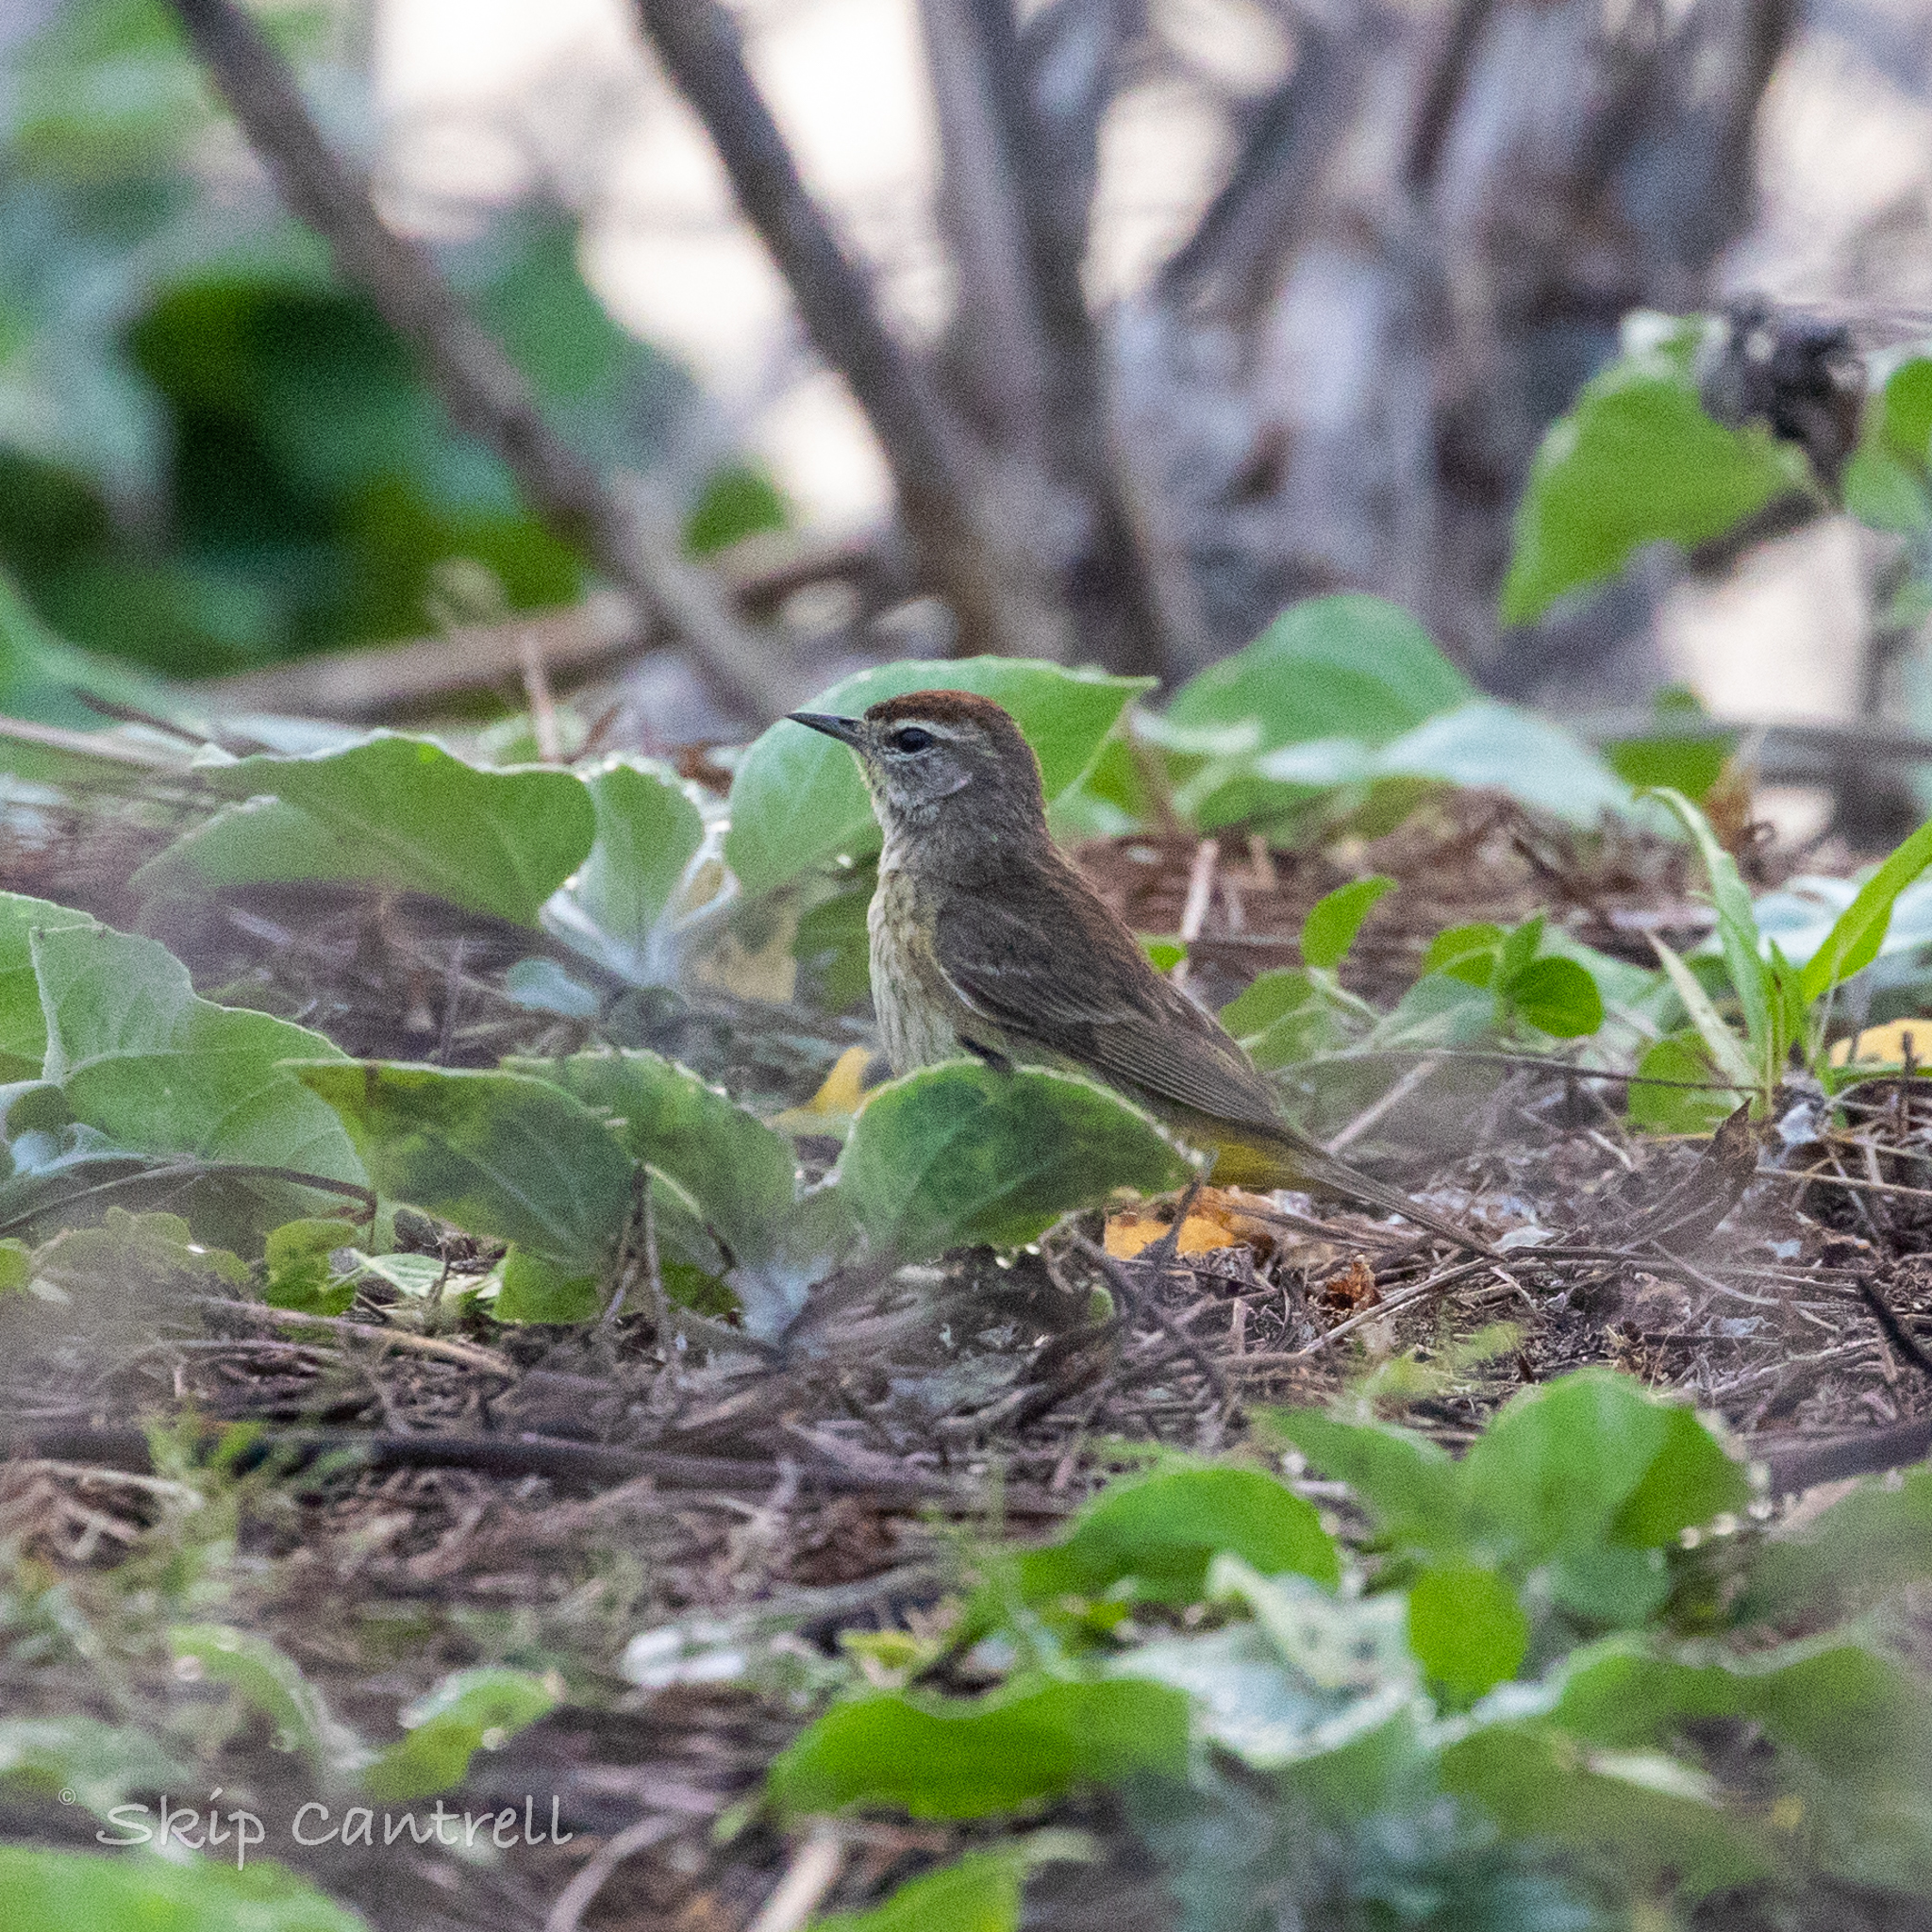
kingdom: Animalia
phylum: Chordata
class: Aves
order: Passeriformes
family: Parulidae
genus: Setophaga
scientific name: Setophaga palmarum
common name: Palm warbler
